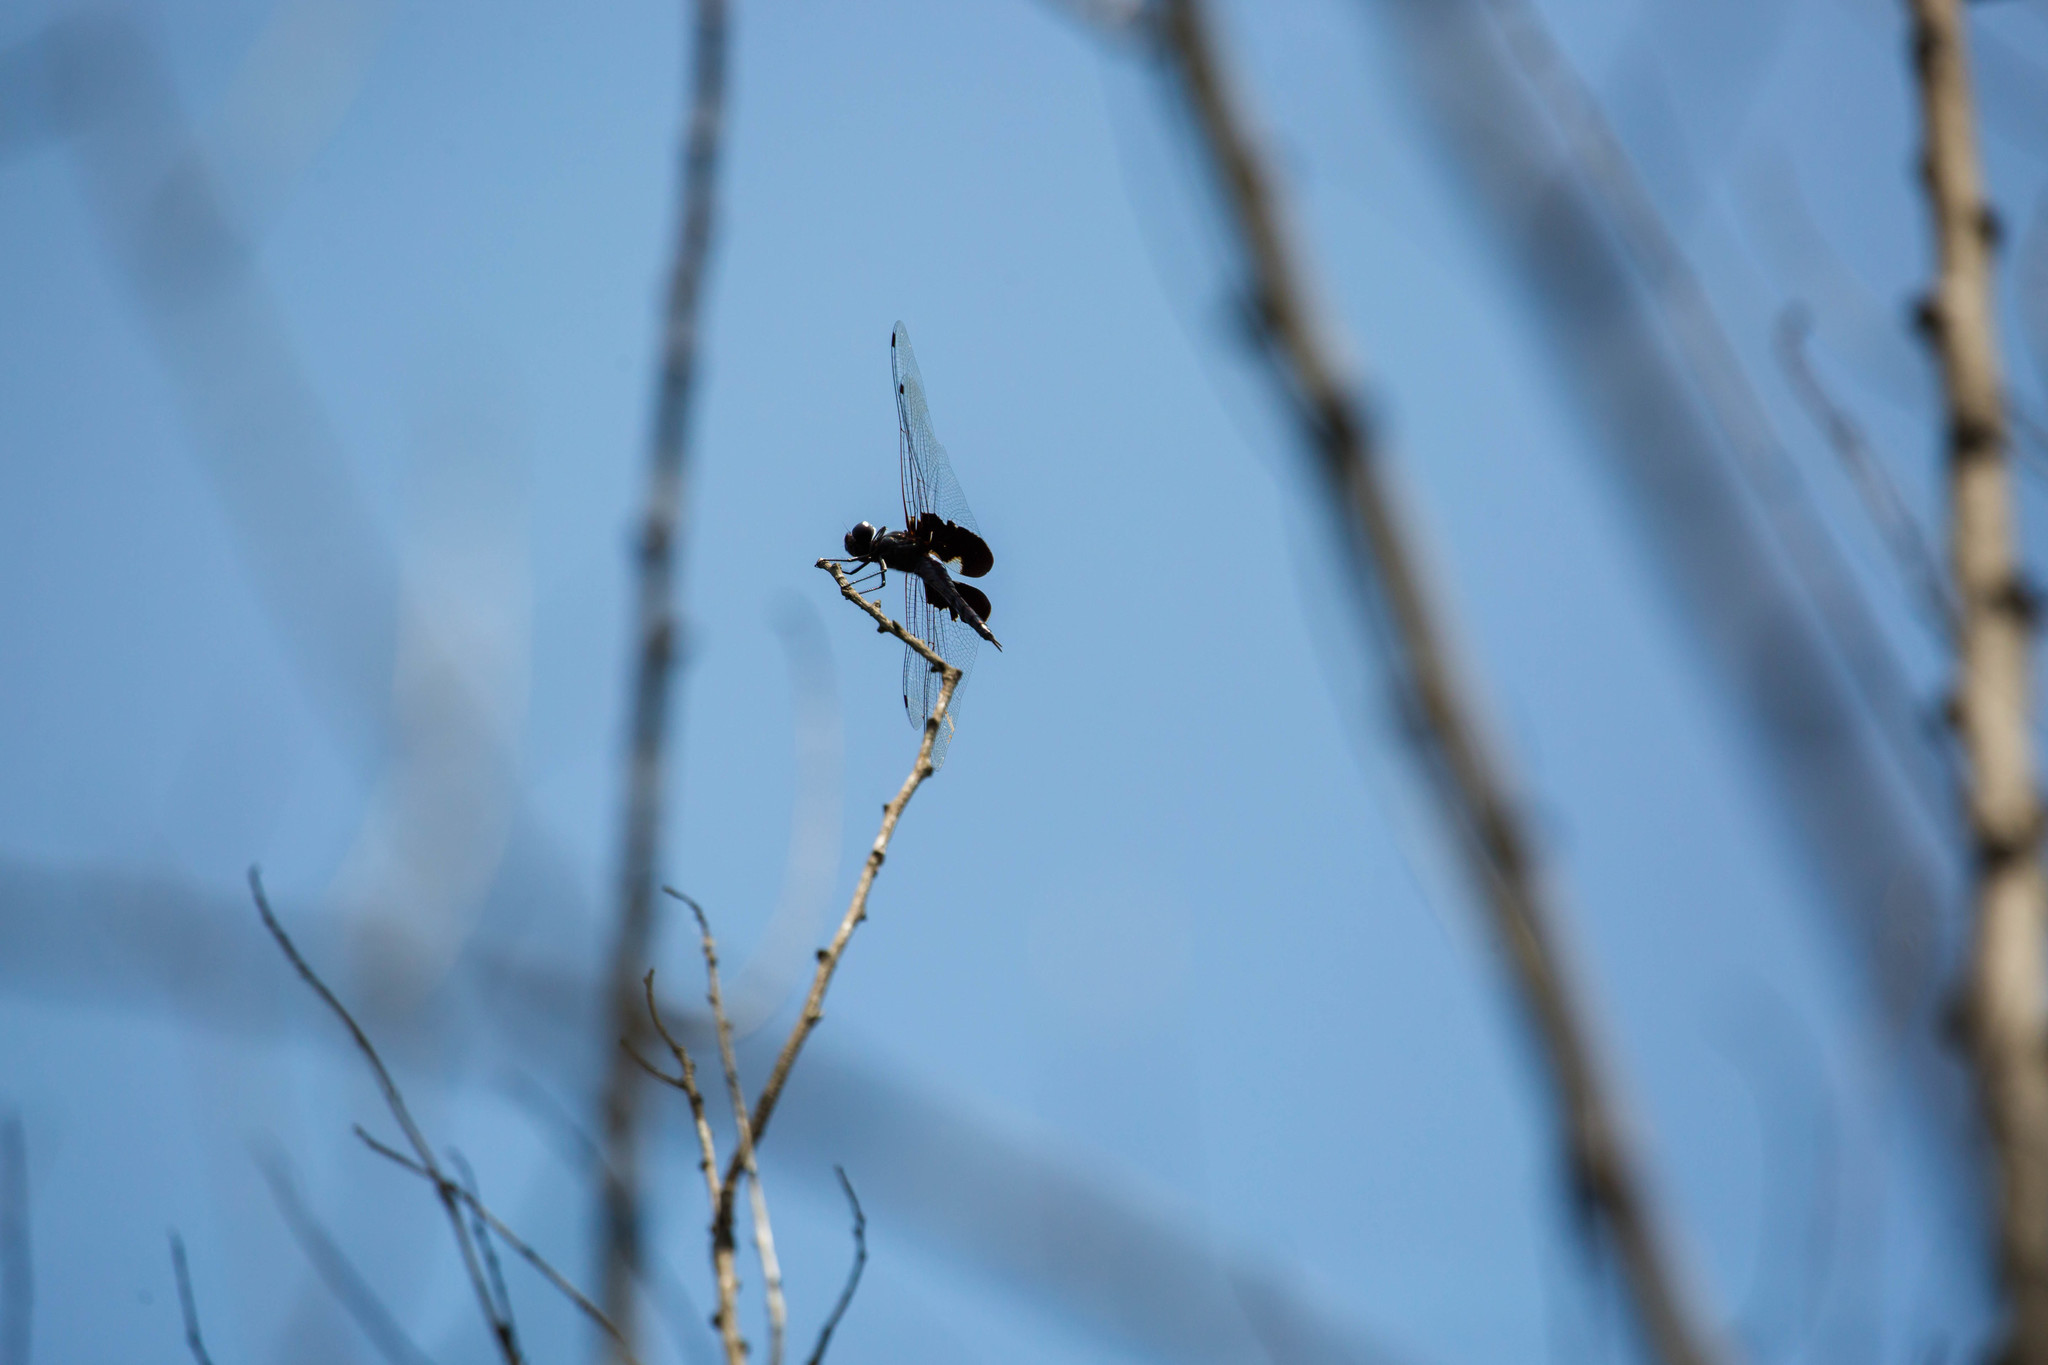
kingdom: Animalia
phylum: Arthropoda
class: Insecta
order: Odonata
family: Libellulidae
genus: Tramea
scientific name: Tramea lacerata
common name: Black saddlebags
